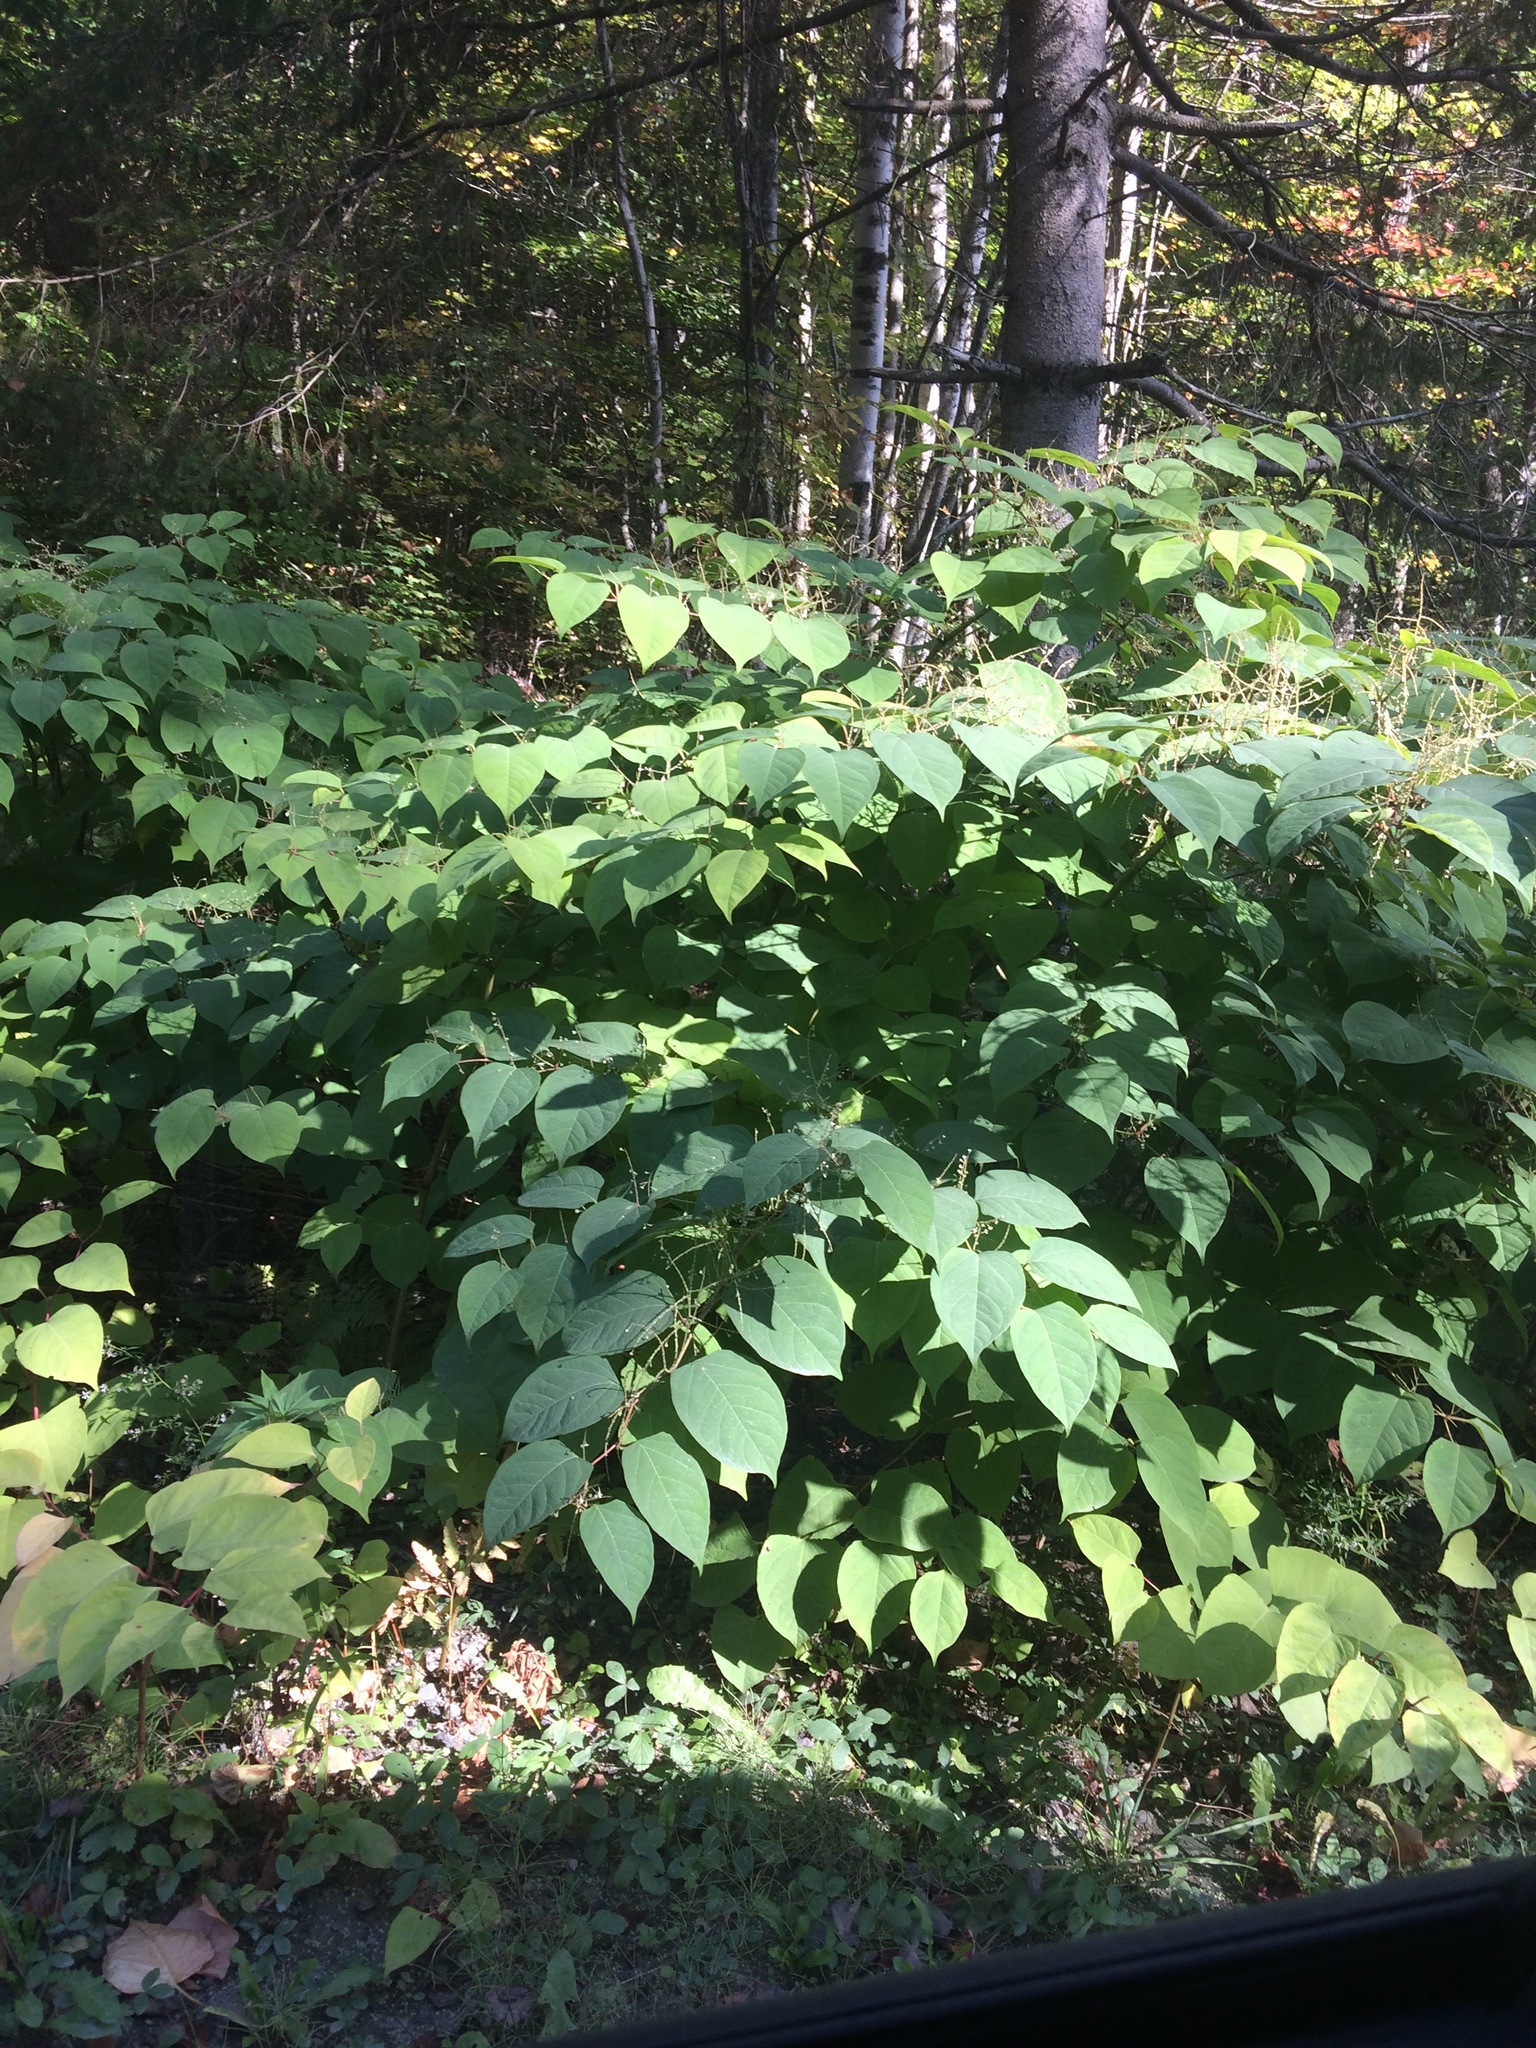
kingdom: Plantae
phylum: Tracheophyta
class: Magnoliopsida
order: Caryophyllales
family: Polygonaceae
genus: Reynoutria
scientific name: Reynoutria japonica
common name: Japanese knotweed
